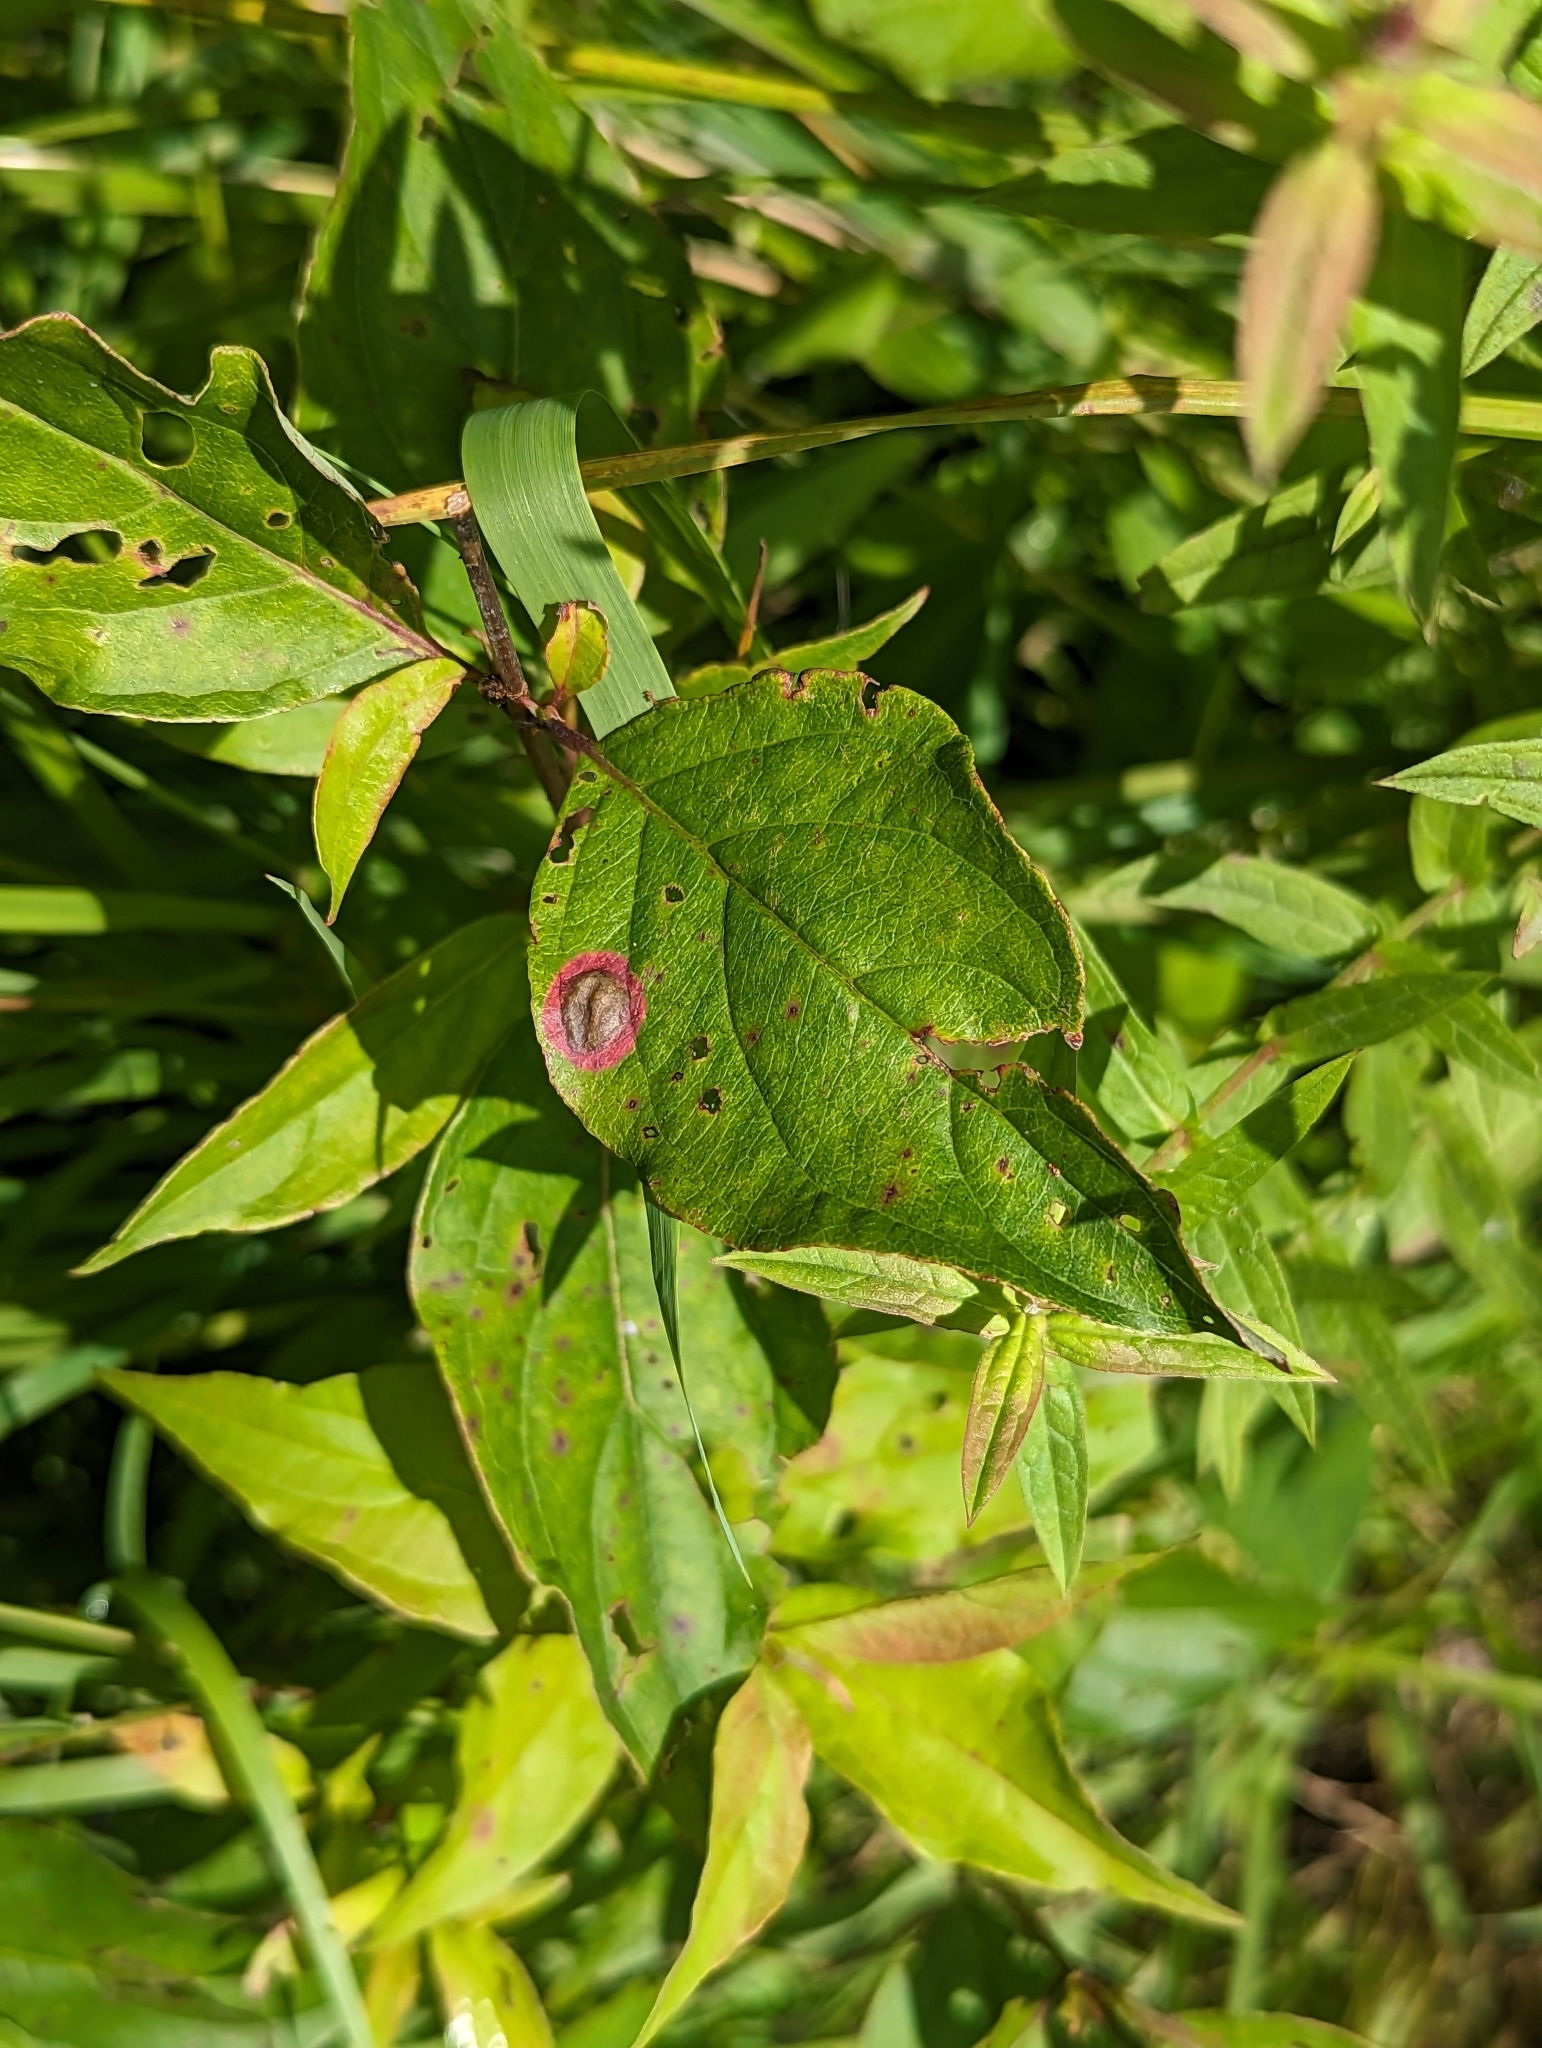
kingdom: Animalia
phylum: Arthropoda
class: Insecta
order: Diptera
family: Cecidomyiidae
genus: Parallelodiplosis
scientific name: Parallelodiplosis subtruncata
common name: Dogwood eyespot gall midge
